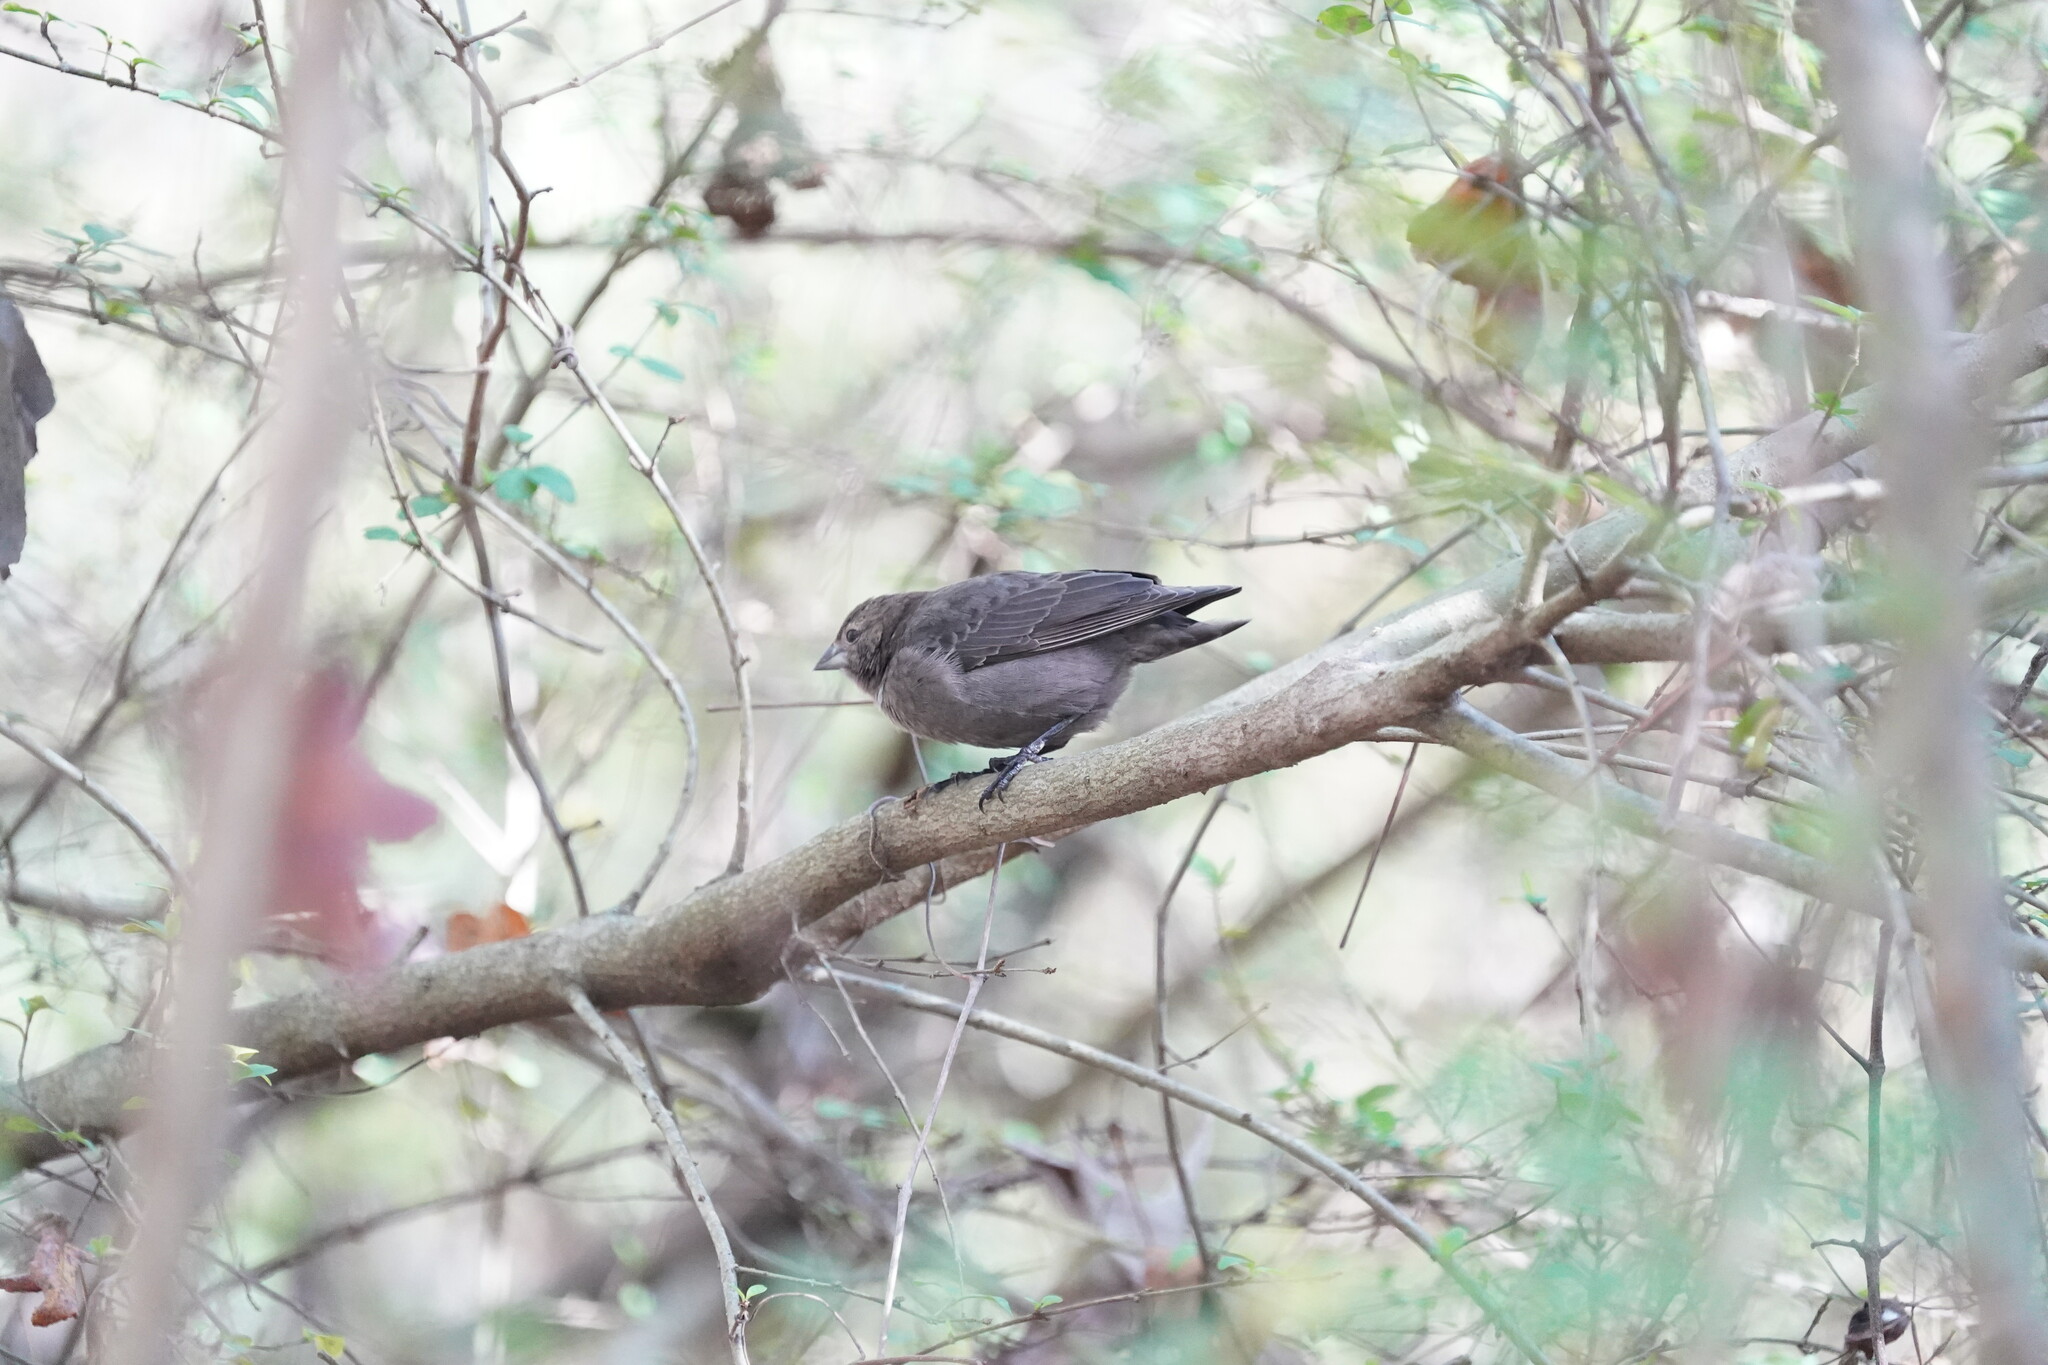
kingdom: Animalia
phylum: Chordata
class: Aves
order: Passeriformes
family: Icteridae
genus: Molothrus
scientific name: Molothrus ater
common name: Brown-headed cowbird
